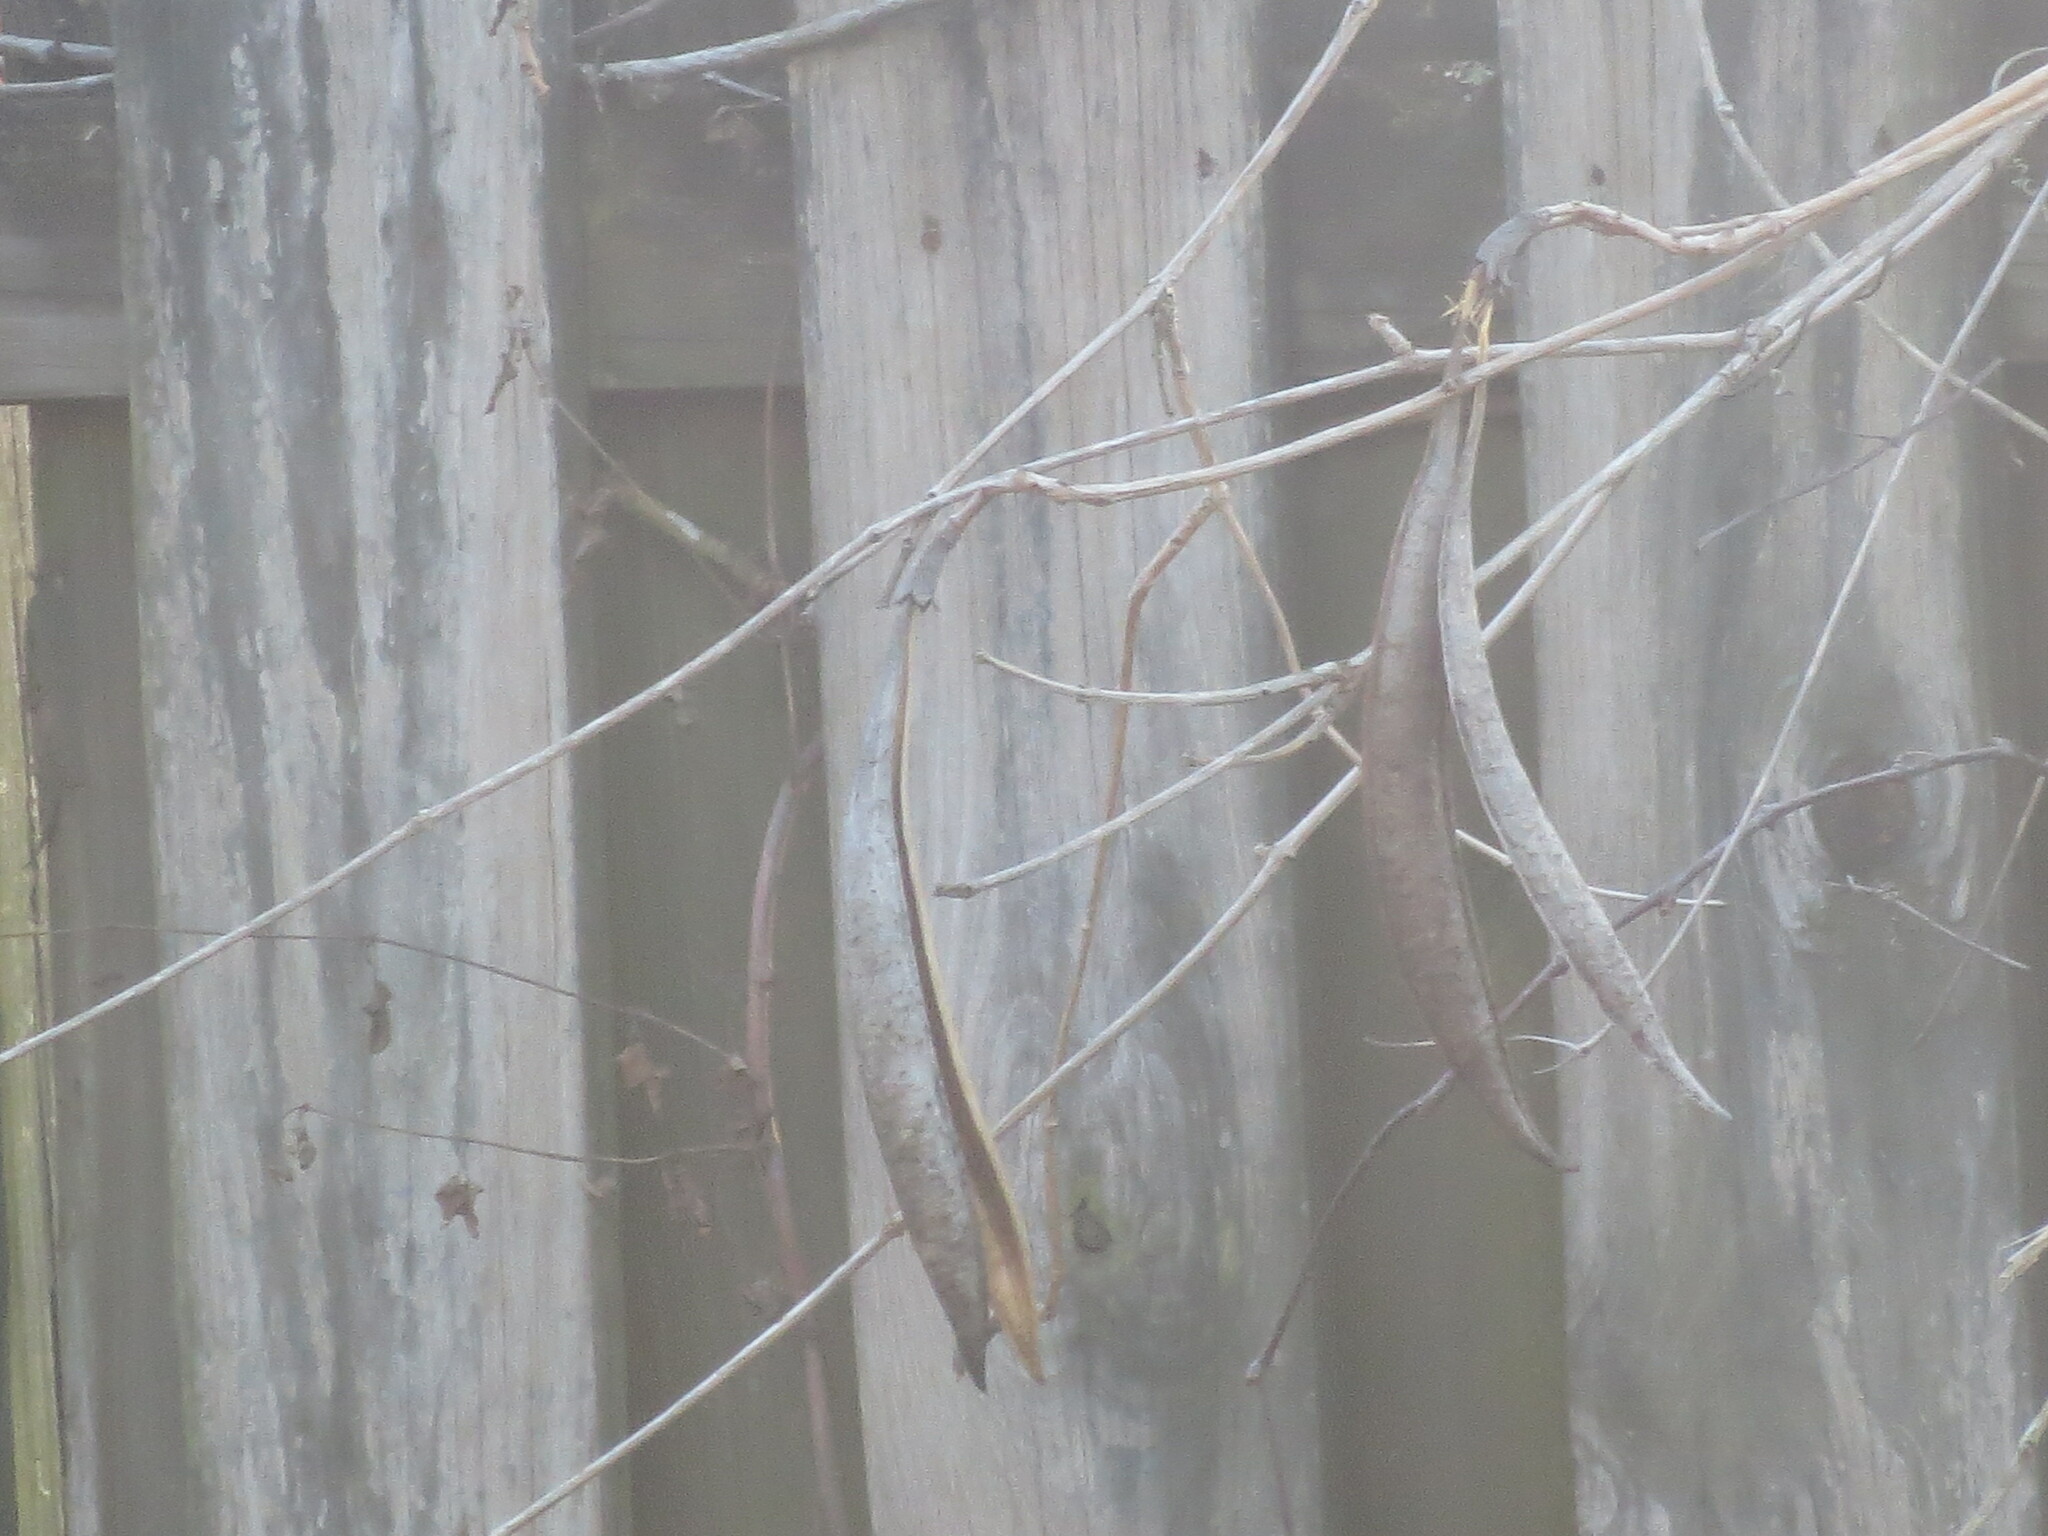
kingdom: Plantae
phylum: Tracheophyta
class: Magnoliopsida
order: Lamiales
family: Bignoniaceae
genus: Campsis
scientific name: Campsis radicans
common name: Trumpet-creeper
